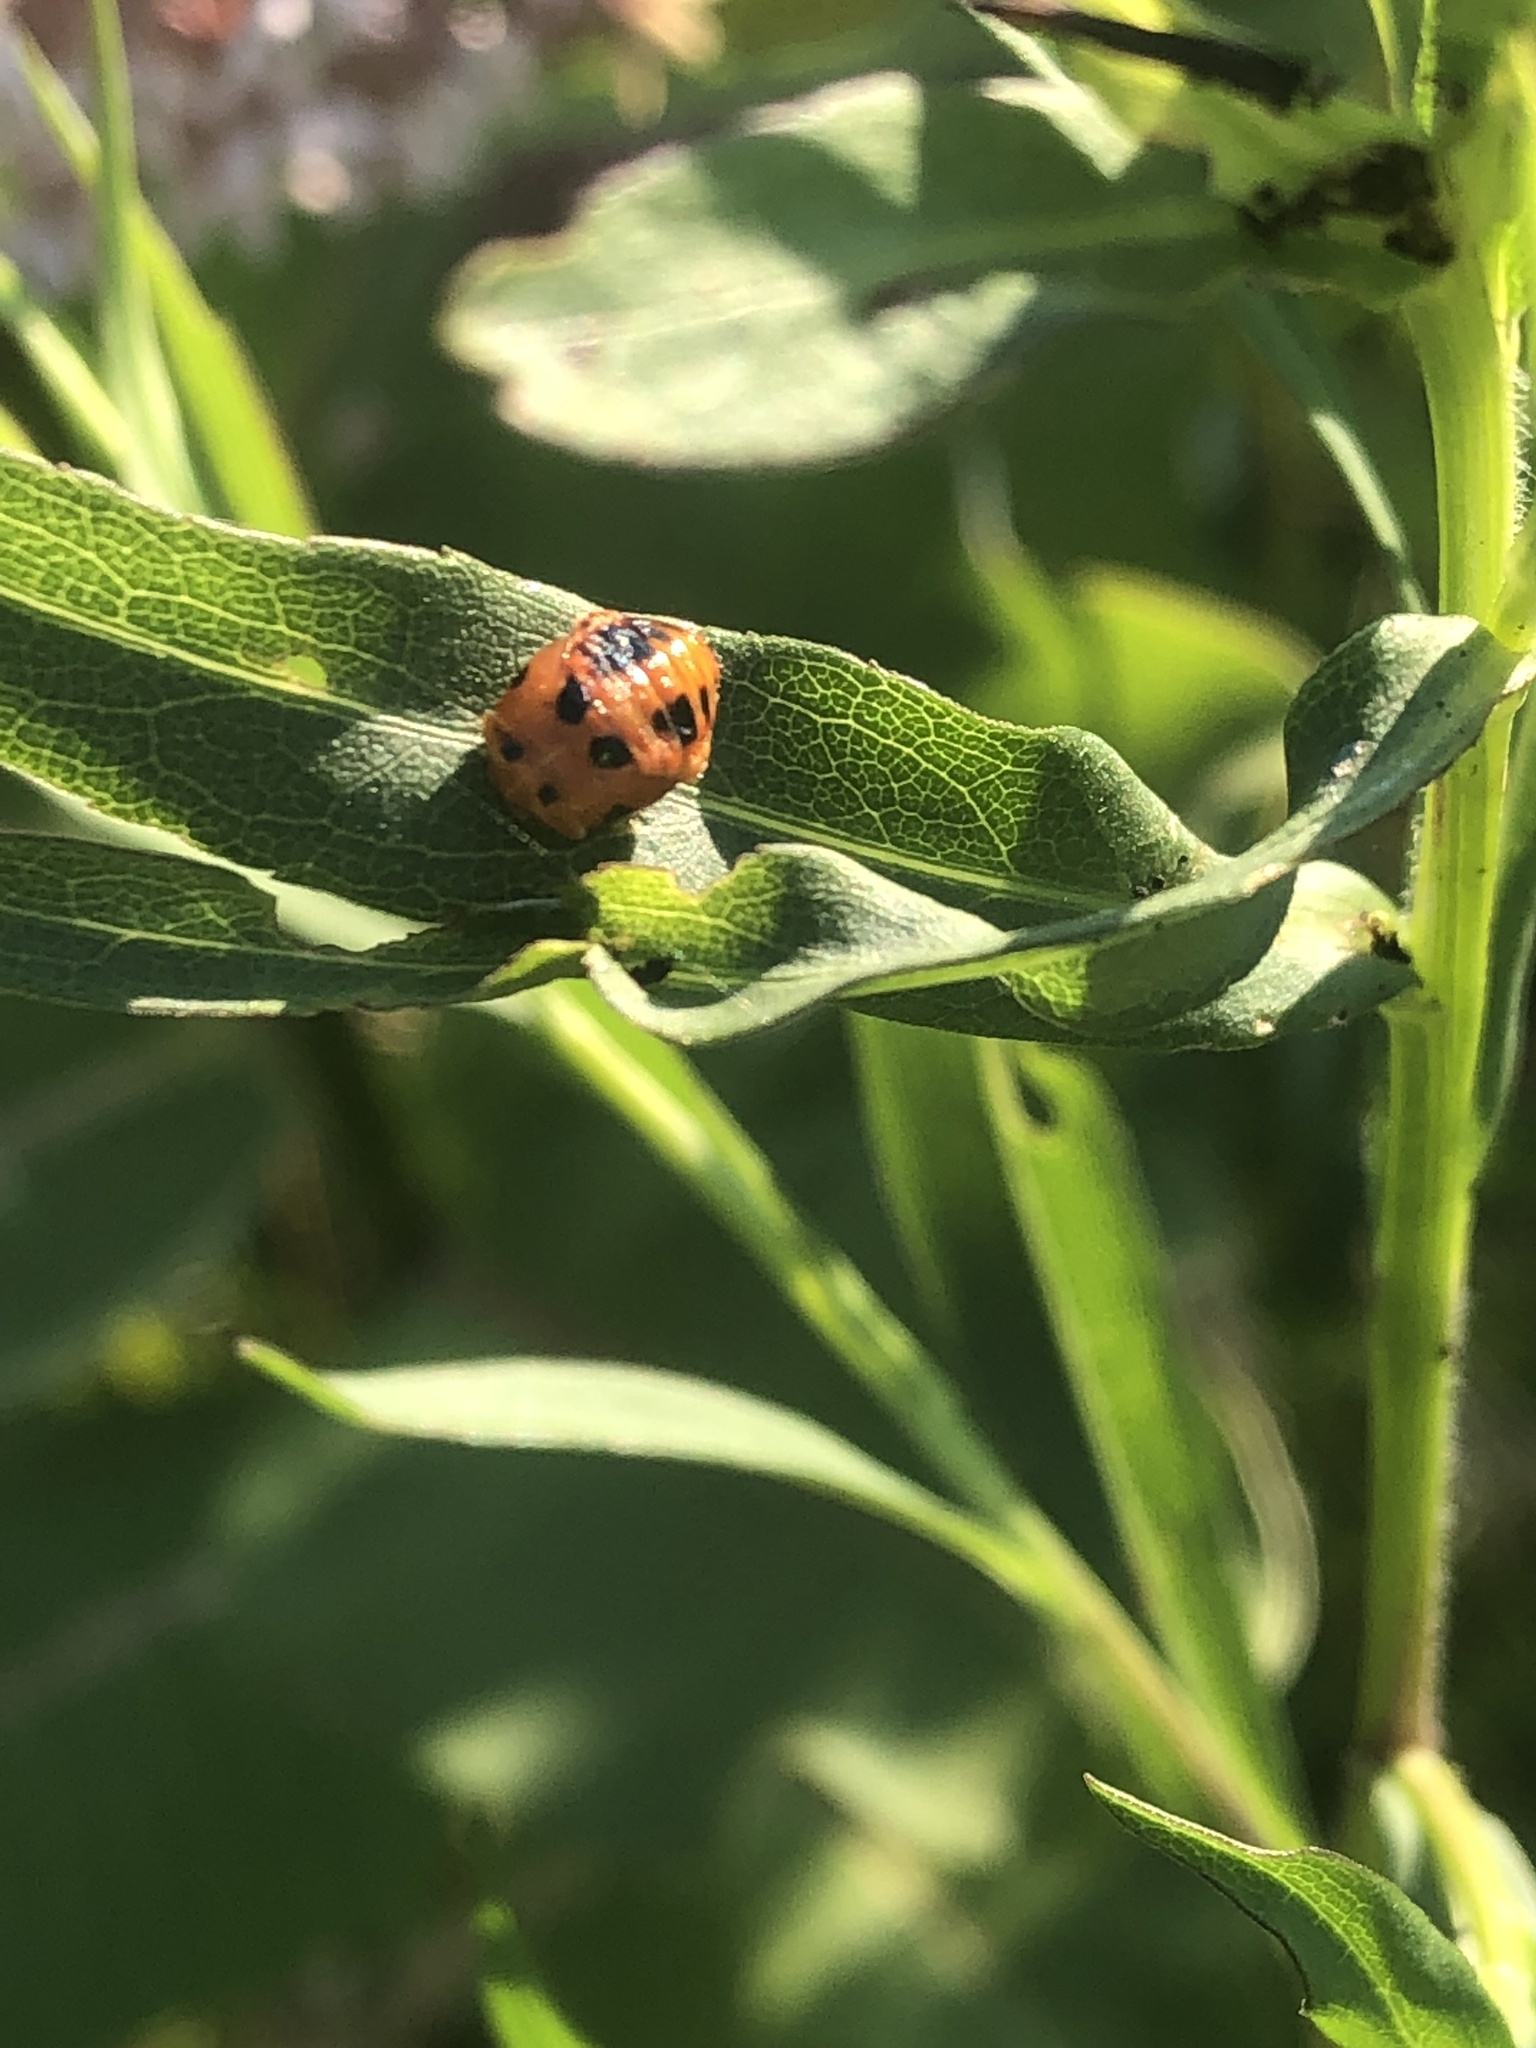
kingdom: Animalia
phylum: Arthropoda
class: Insecta
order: Coleoptera
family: Coccinellidae
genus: Harmonia
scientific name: Harmonia axyridis
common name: Harlequin ladybird
